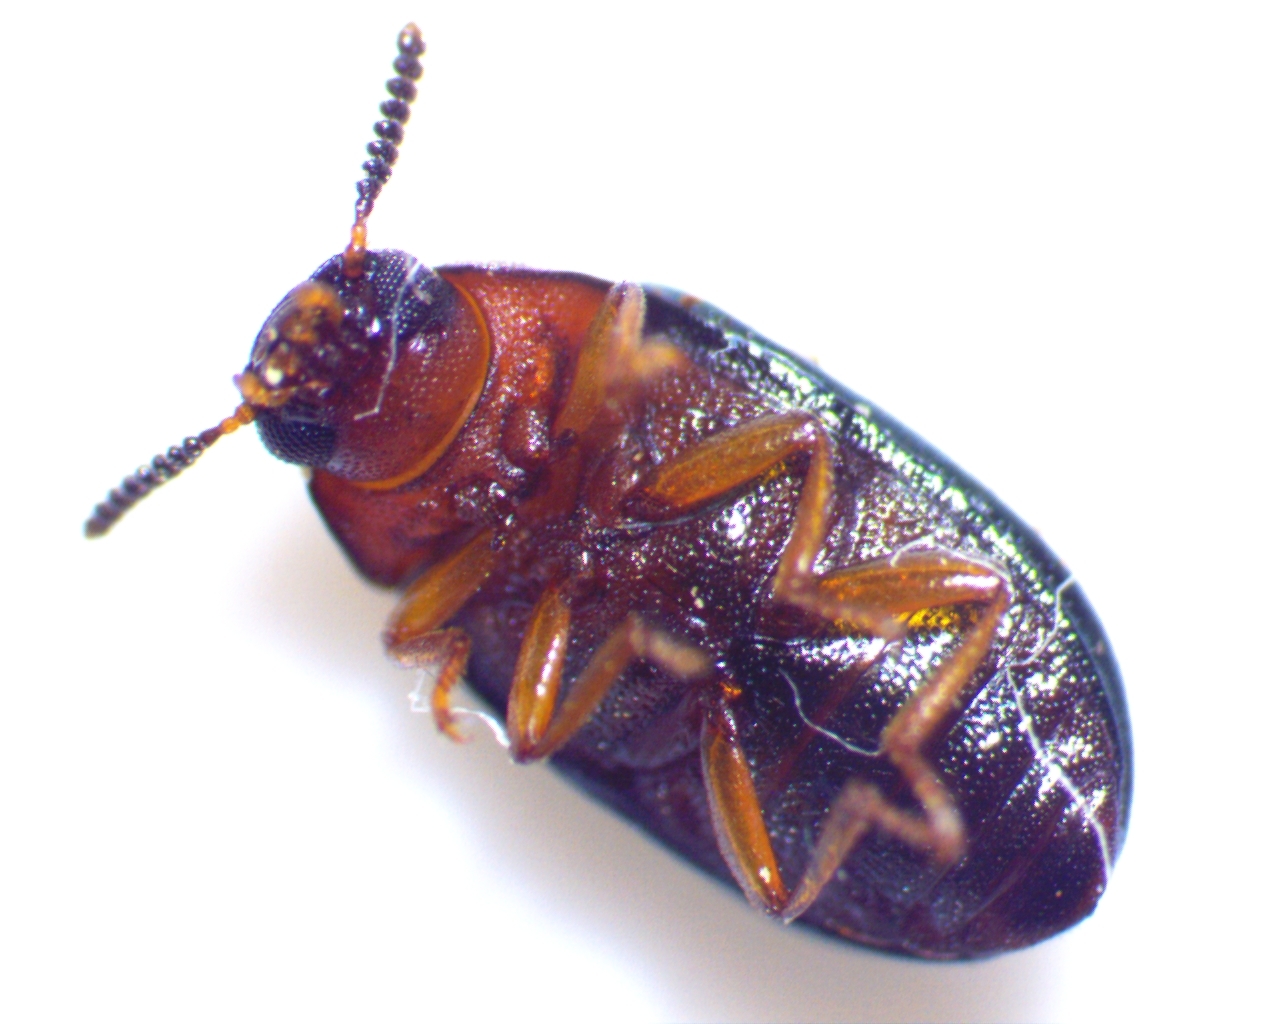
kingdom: Animalia
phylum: Arthropoda
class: Insecta
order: Coleoptera
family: Tenebrionidae
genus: Neomida
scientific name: Neomida bicornis
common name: Two-horned darkling beetle
